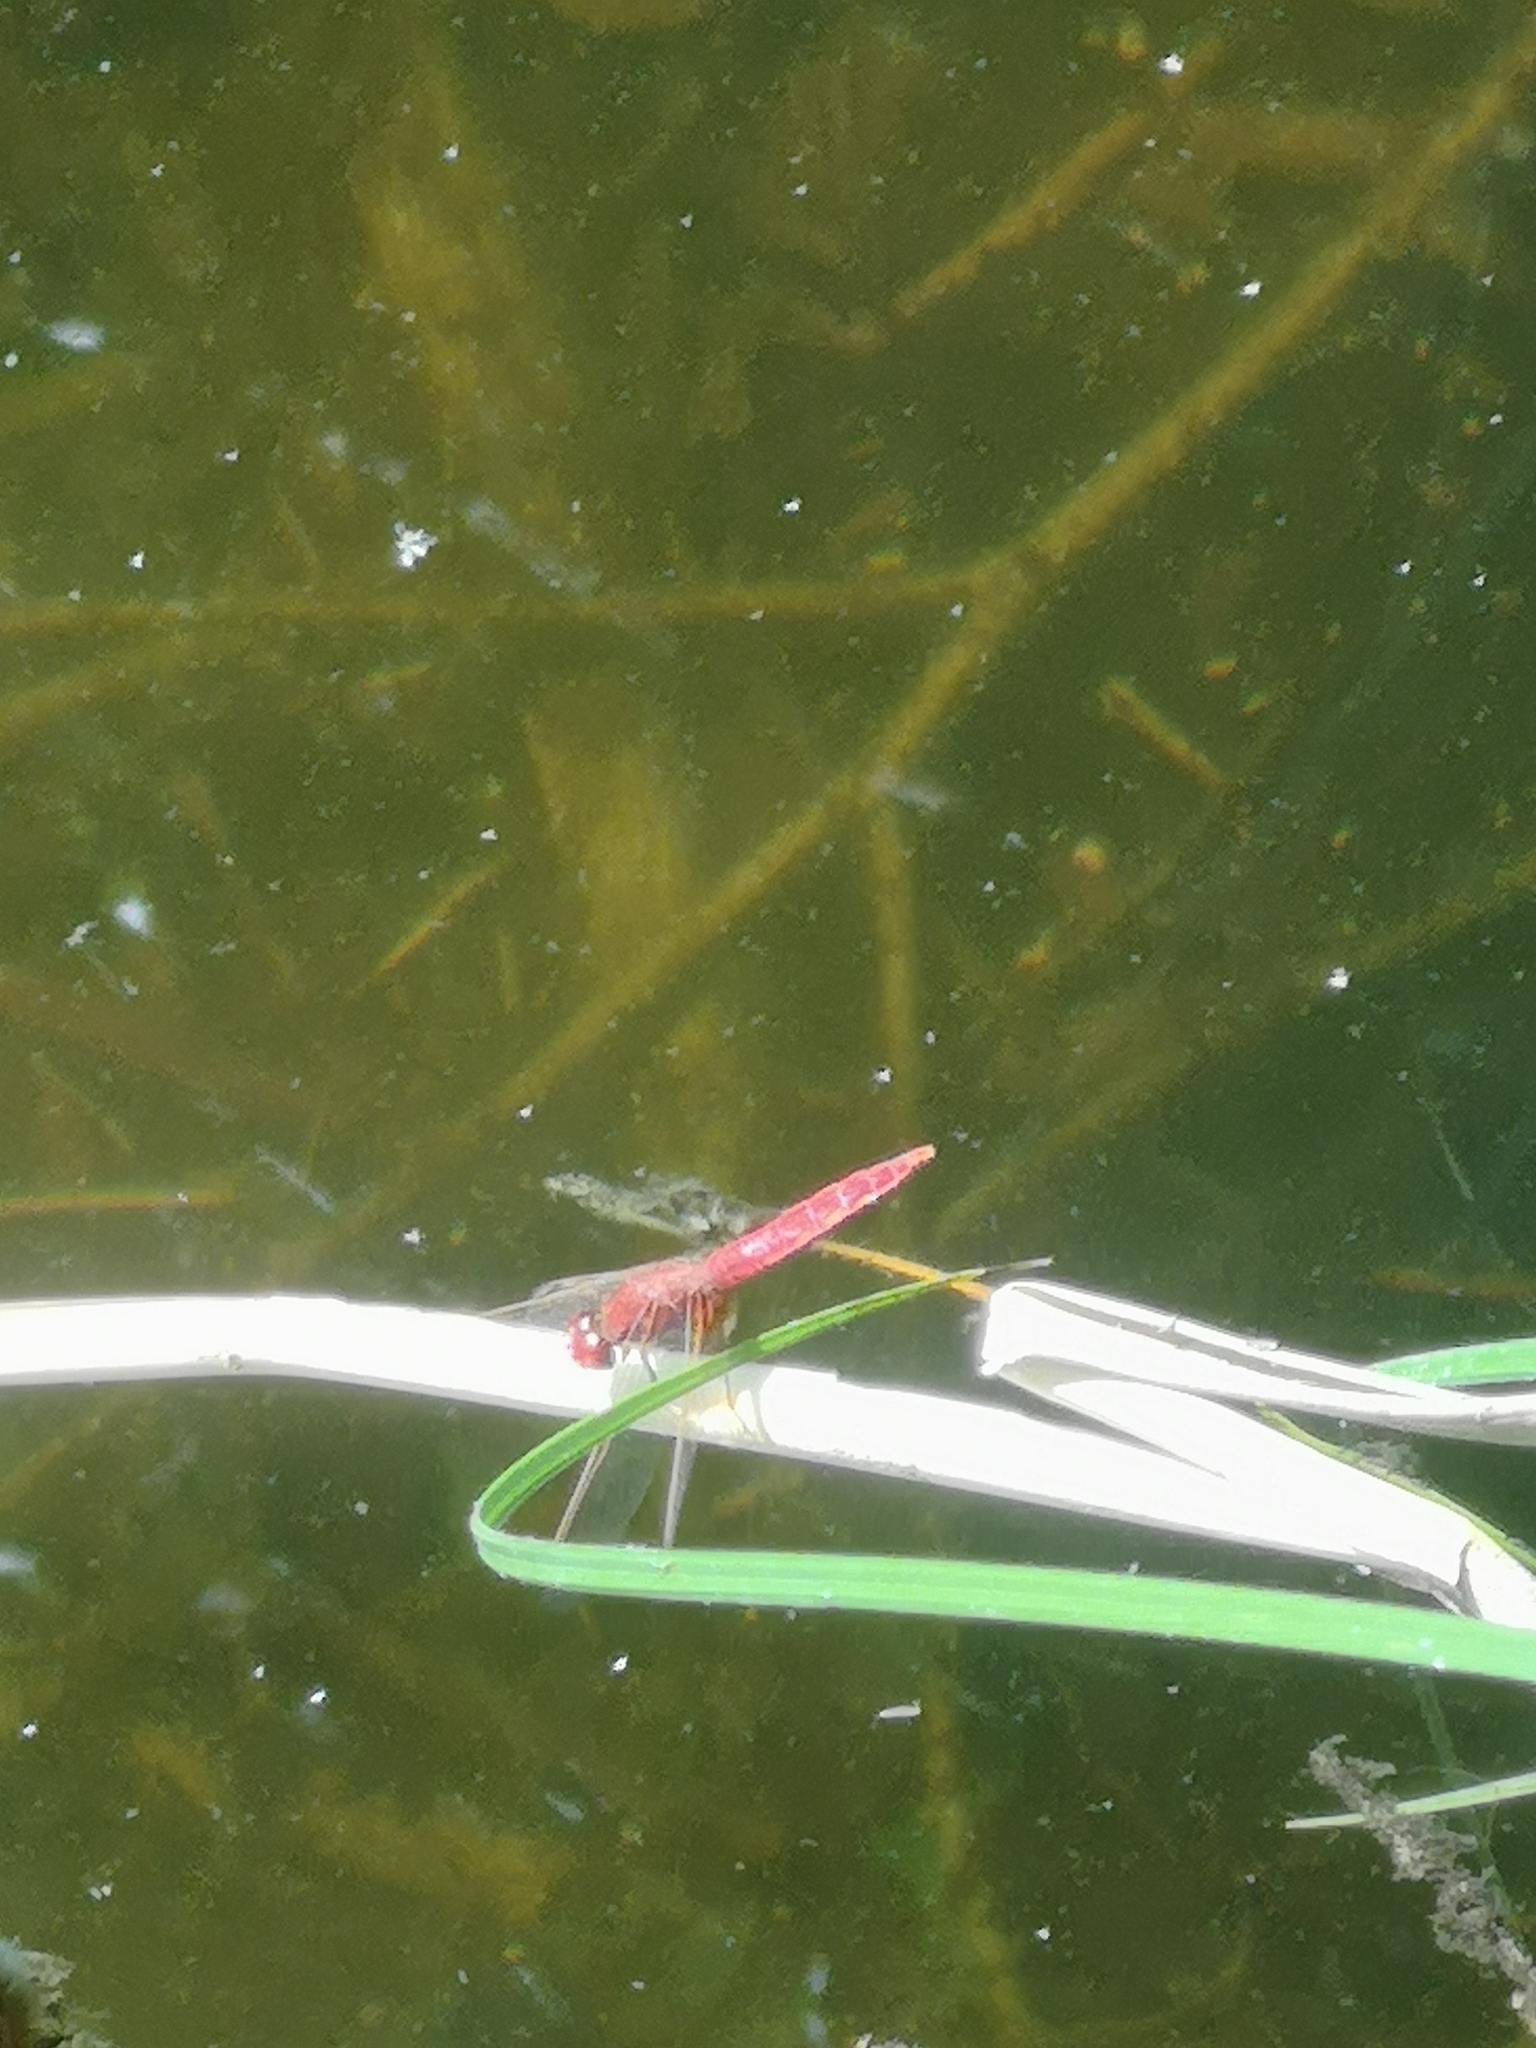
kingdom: Animalia
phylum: Arthropoda
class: Insecta
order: Odonata
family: Libellulidae
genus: Crocothemis
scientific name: Crocothemis erythraea
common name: Scarlet dragonfly
